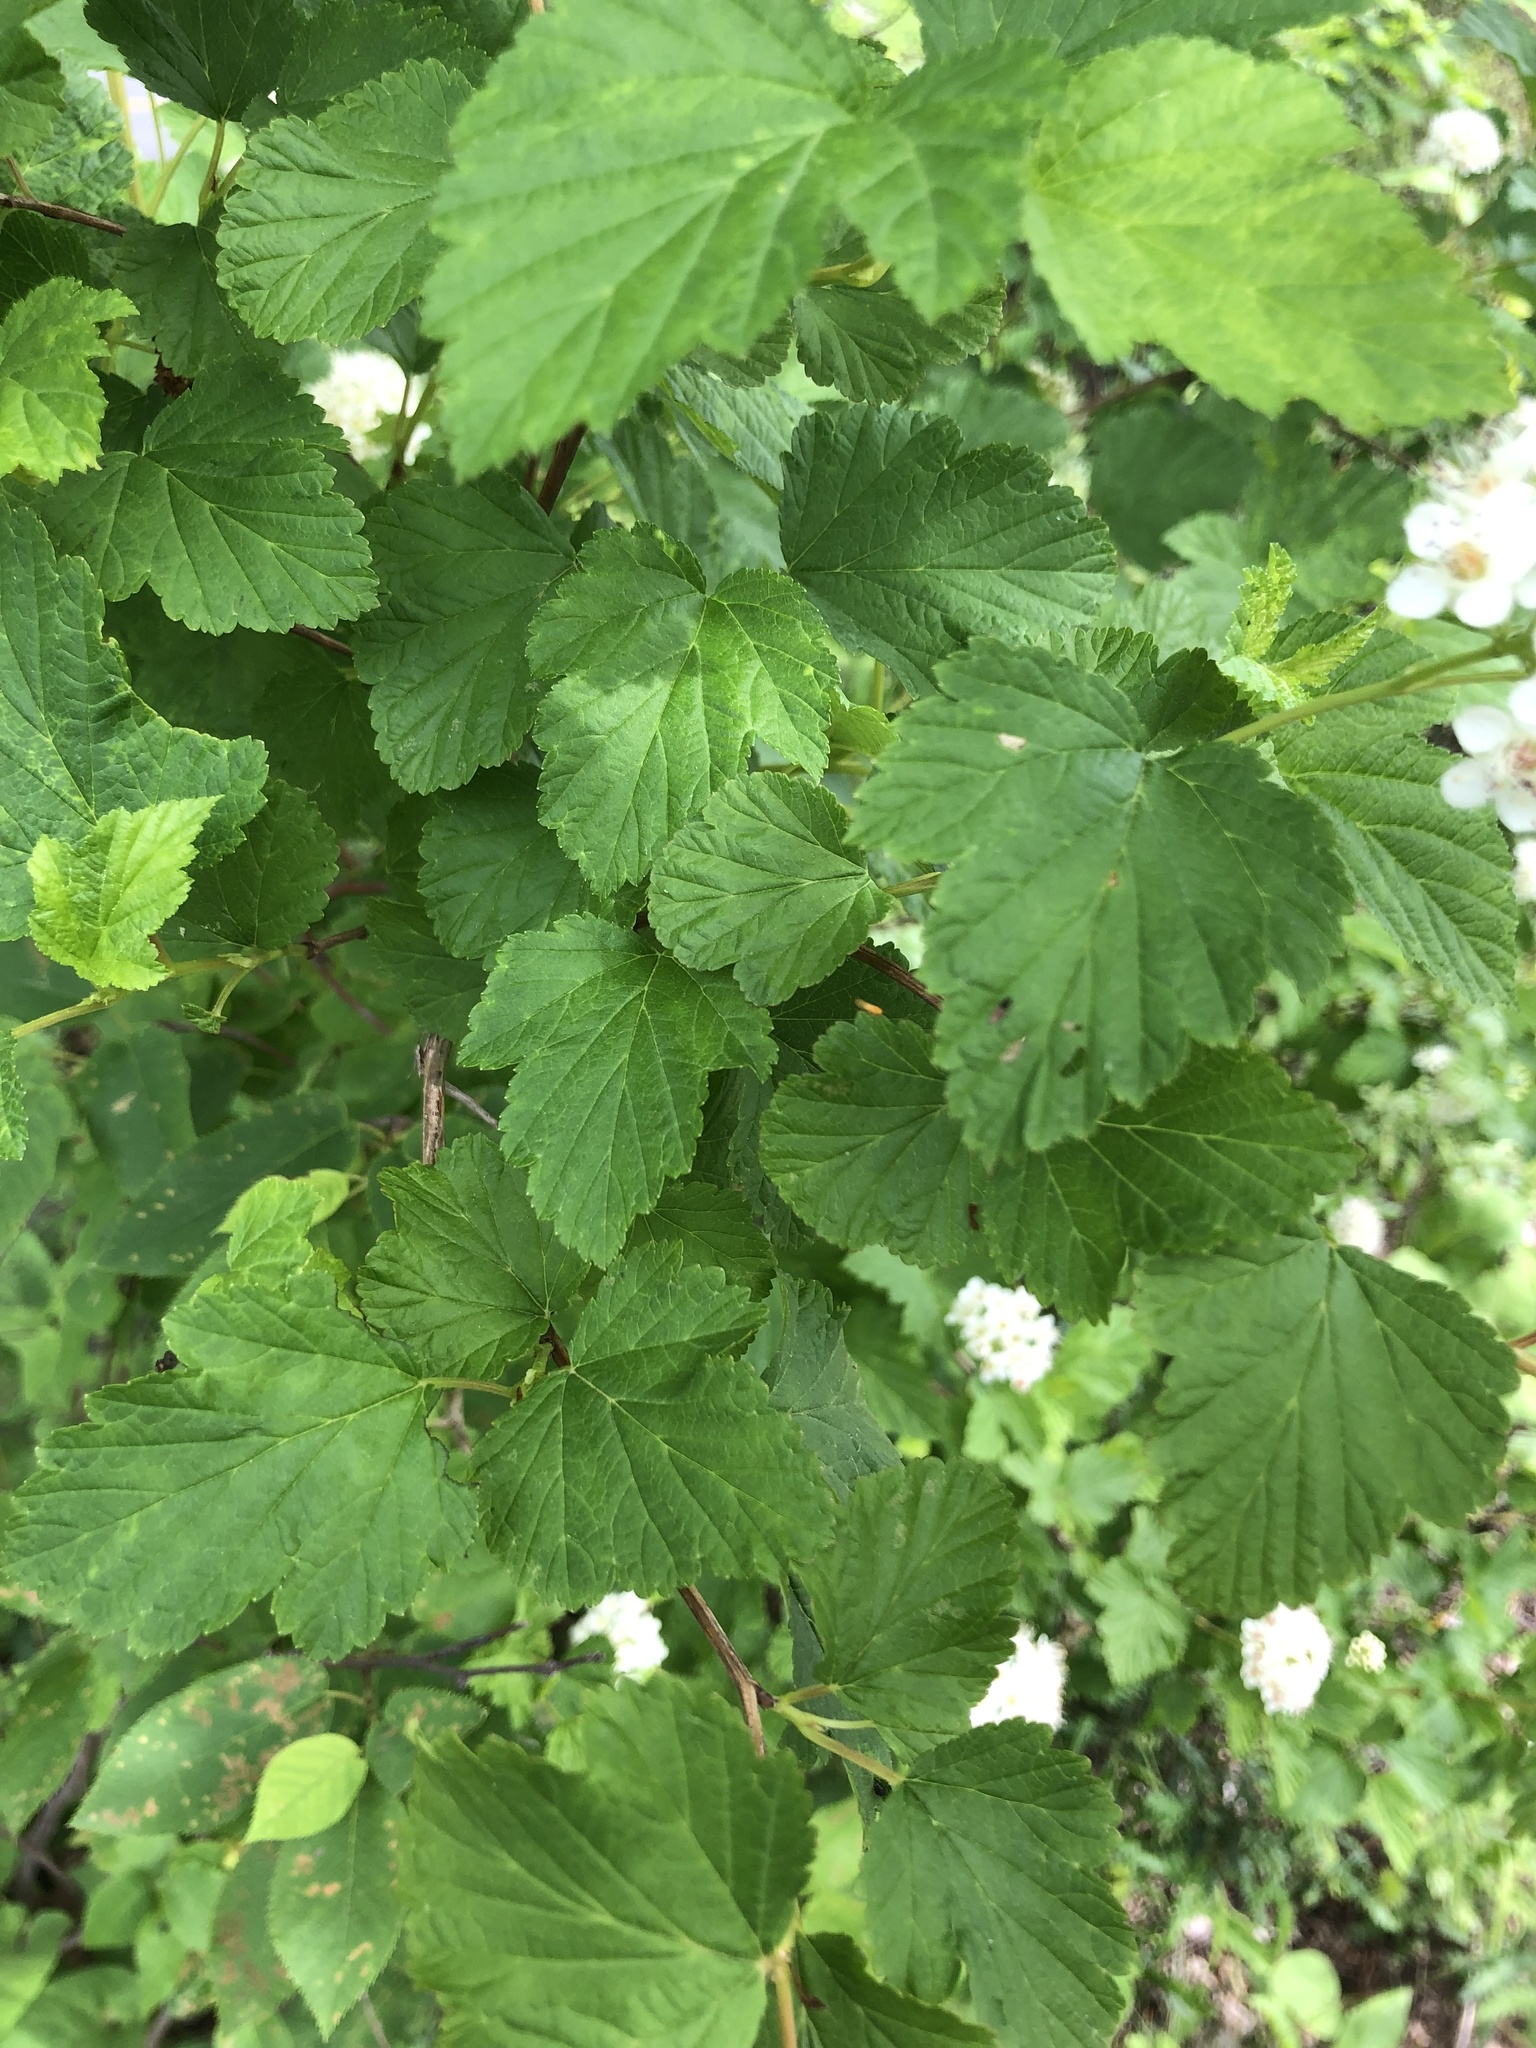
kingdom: Plantae
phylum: Tracheophyta
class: Magnoliopsida
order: Rosales
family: Rosaceae
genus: Physocarpus
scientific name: Physocarpus opulifolius
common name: Ninebark
